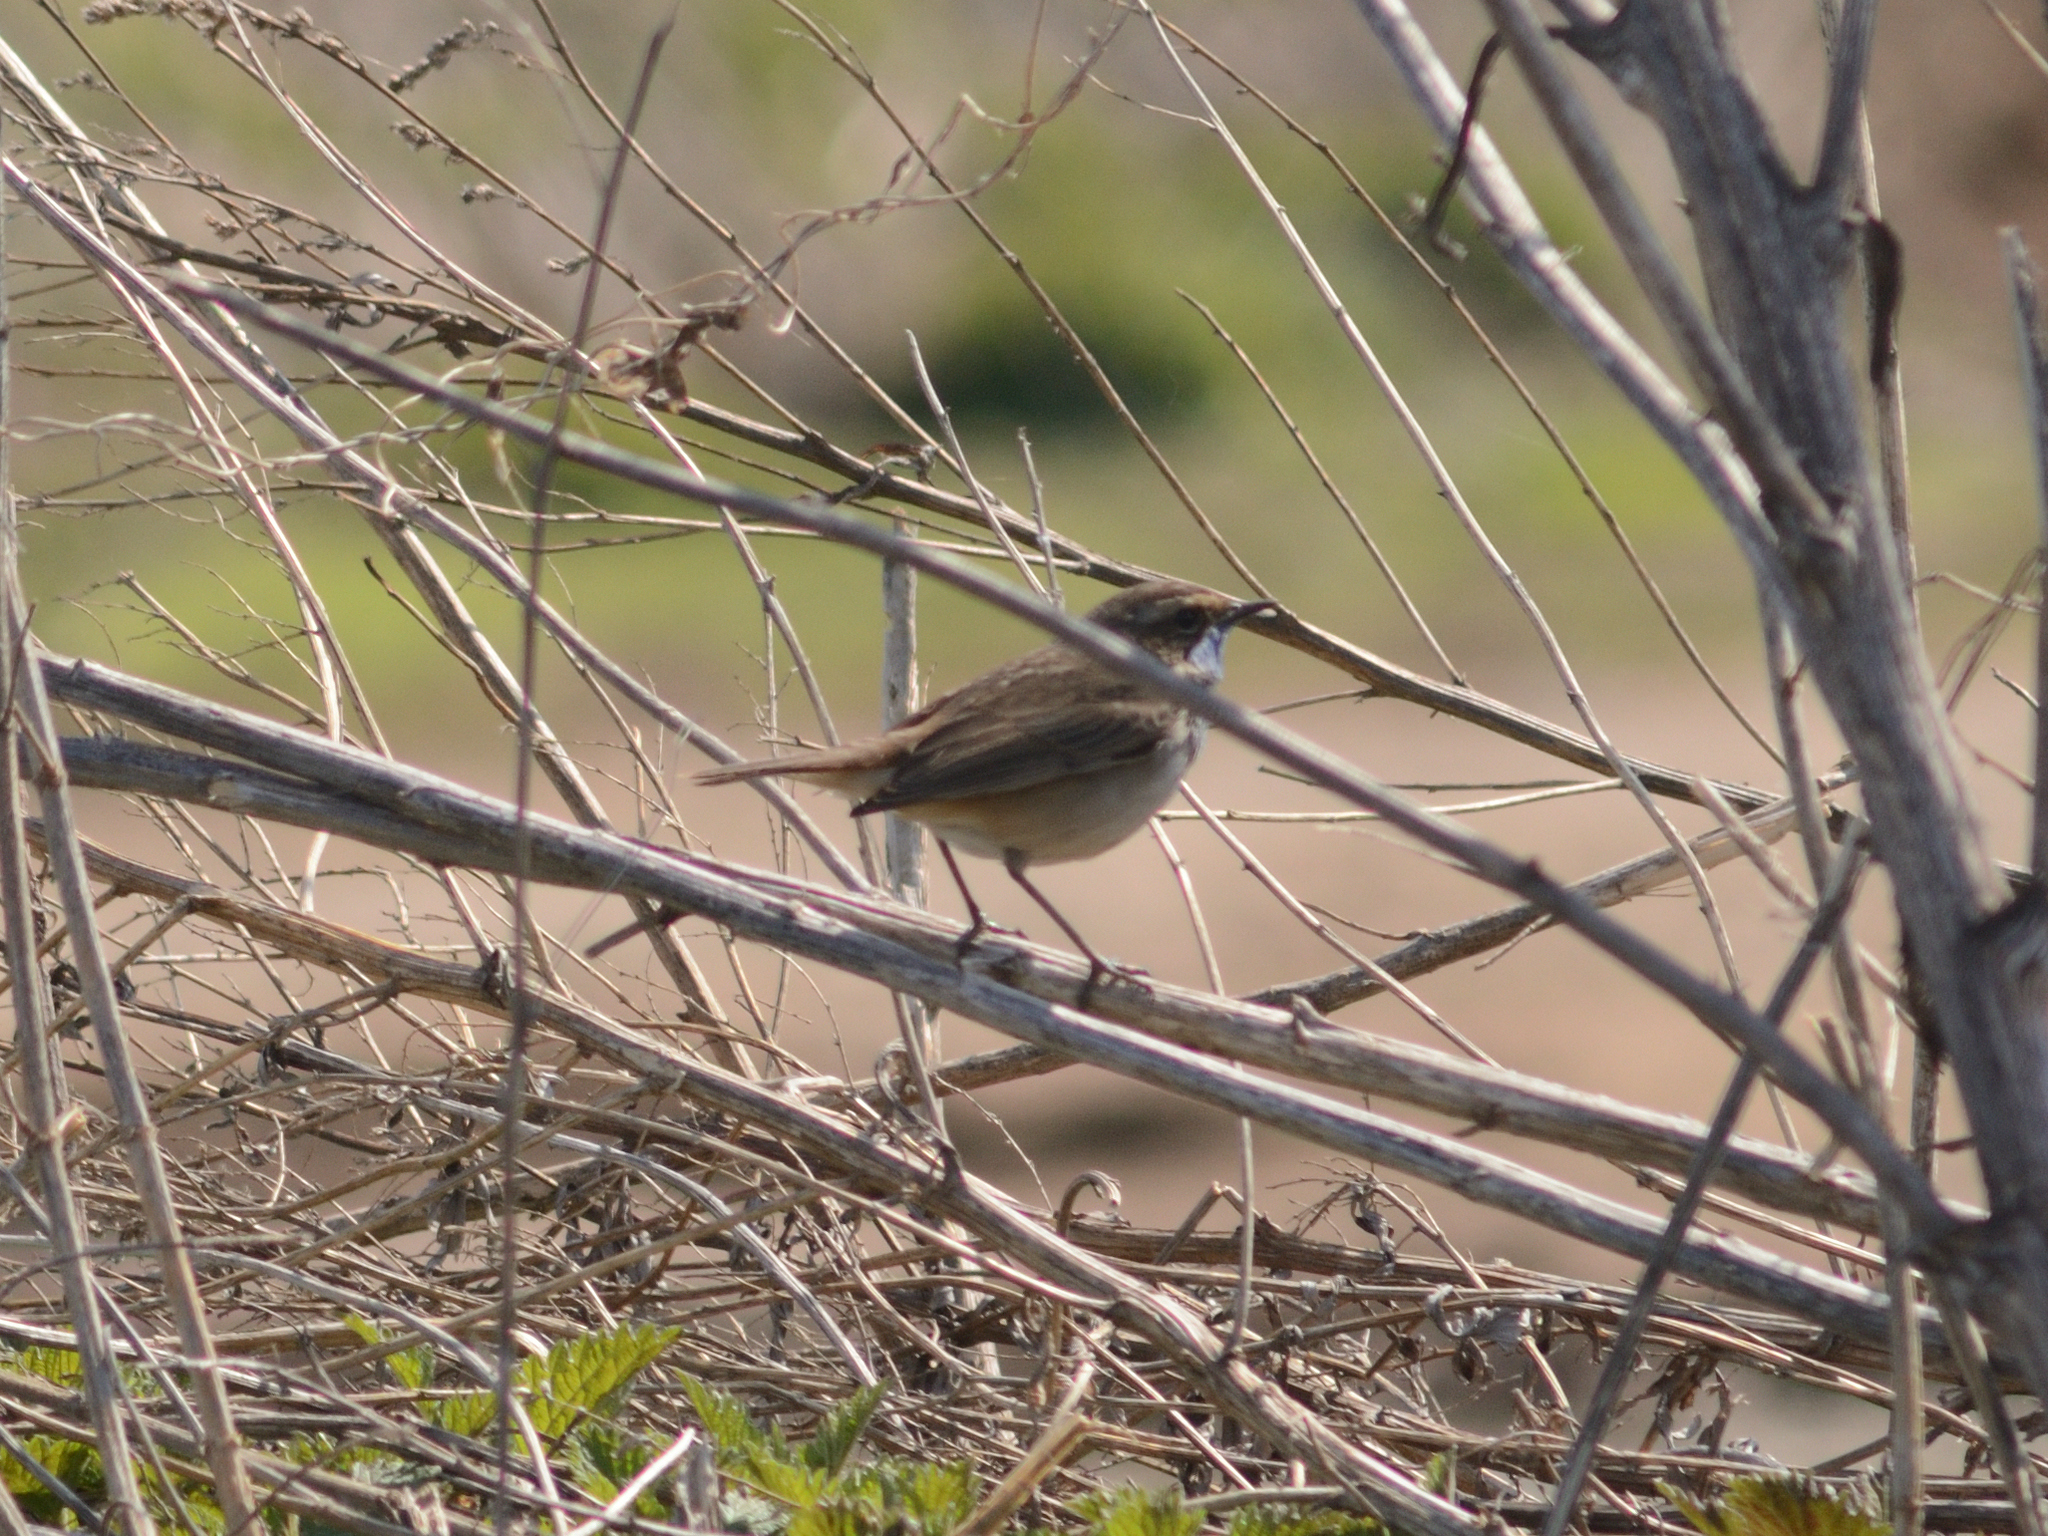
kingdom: Animalia
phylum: Chordata
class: Aves
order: Passeriformes
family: Muscicapidae
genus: Luscinia
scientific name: Luscinia svecica
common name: Bluethroat
